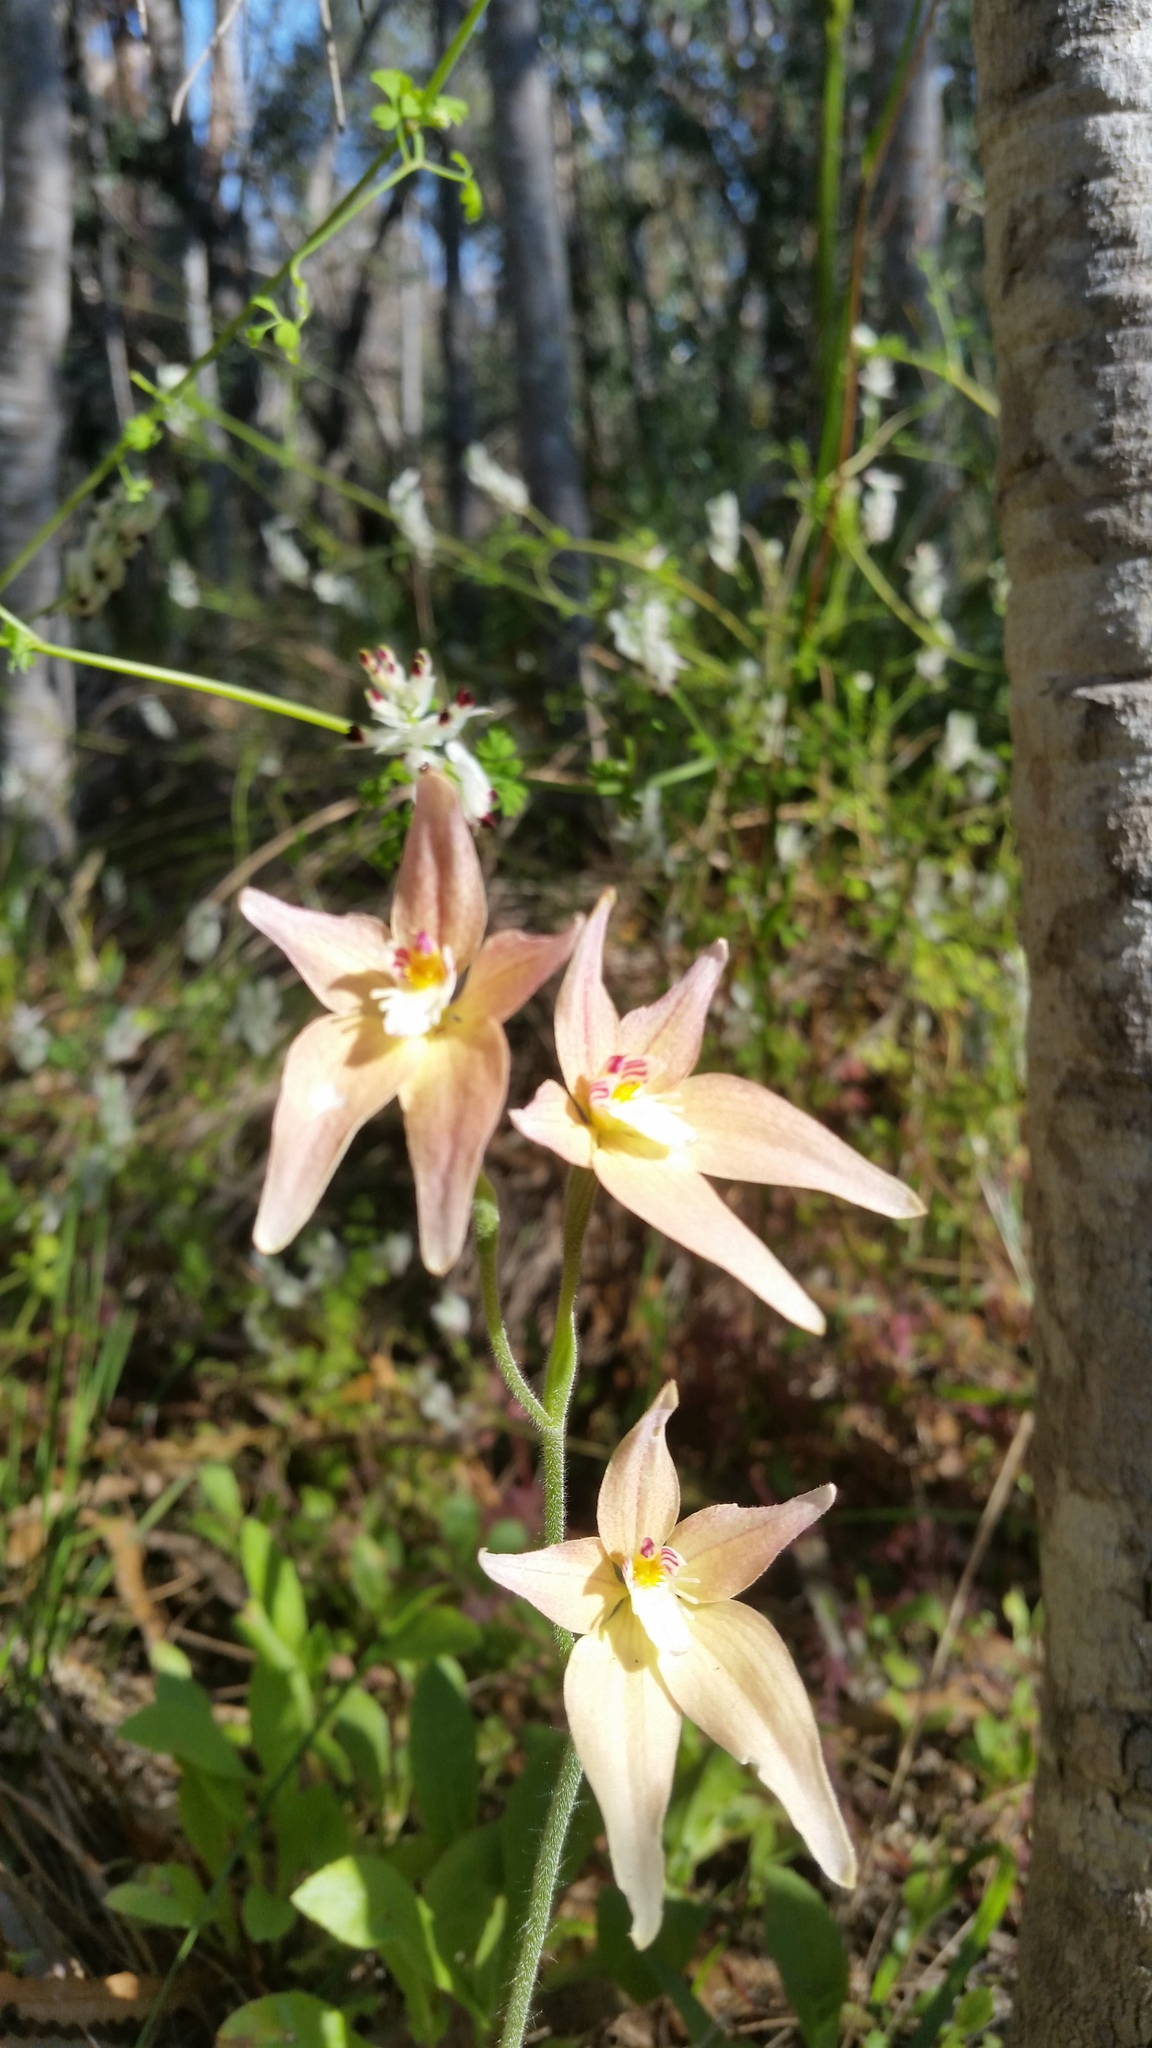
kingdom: Plantae
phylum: Tracheophyta
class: Liliopsida
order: Asparagales
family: Orchidaceae
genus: Caladenia
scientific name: Caladenia spectabilis
